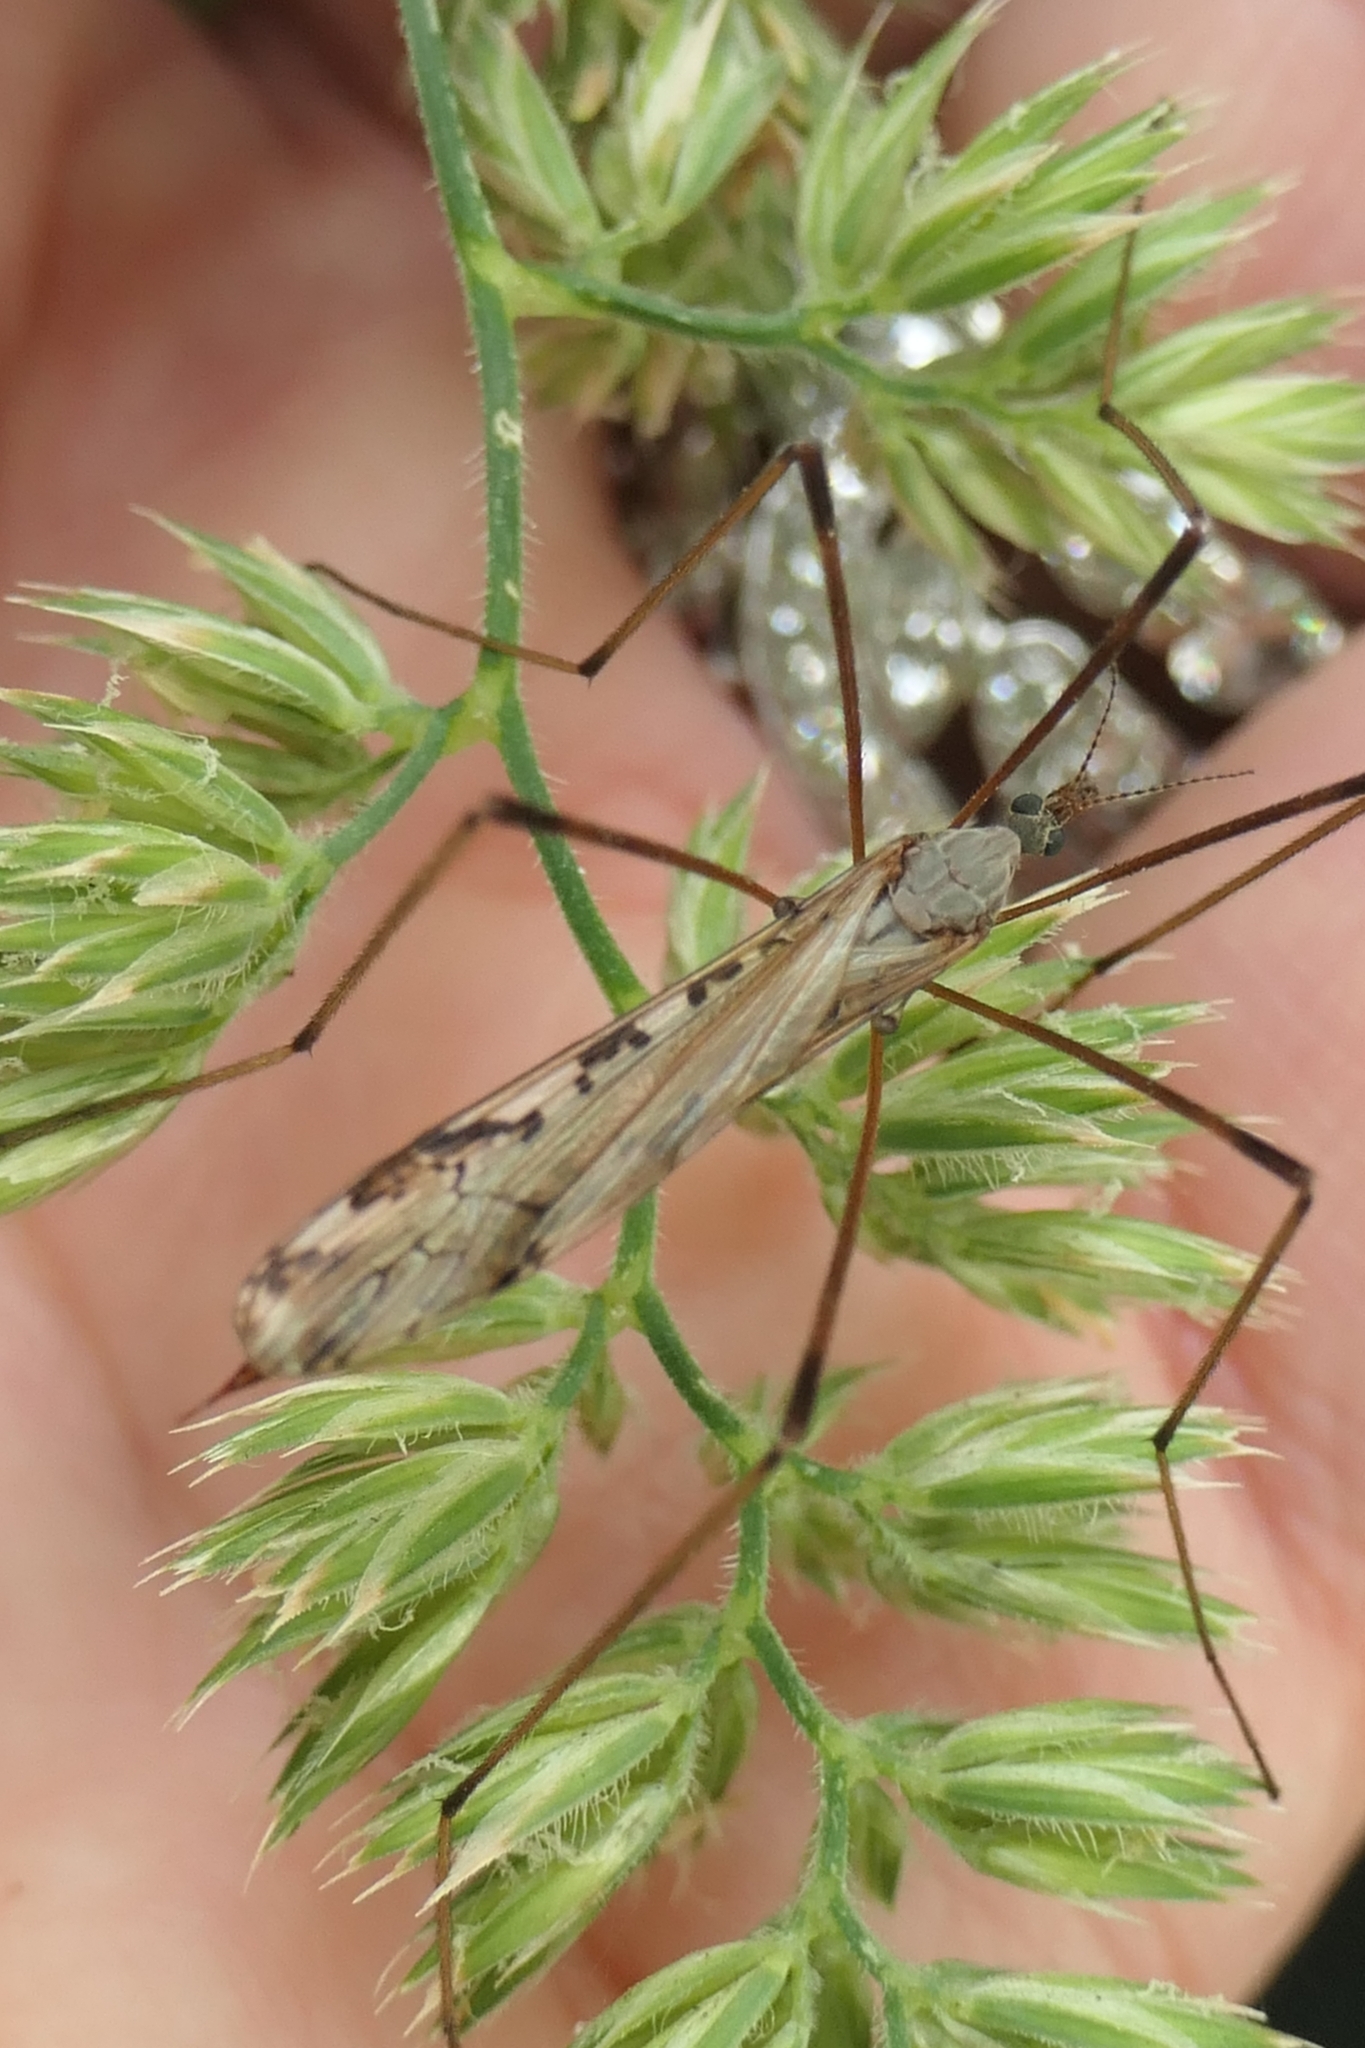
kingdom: Animalia
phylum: Arthropoda
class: Insecta
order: Diptera
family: Limoniidae
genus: Paralimnophila
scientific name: Paralimnophila skusei
